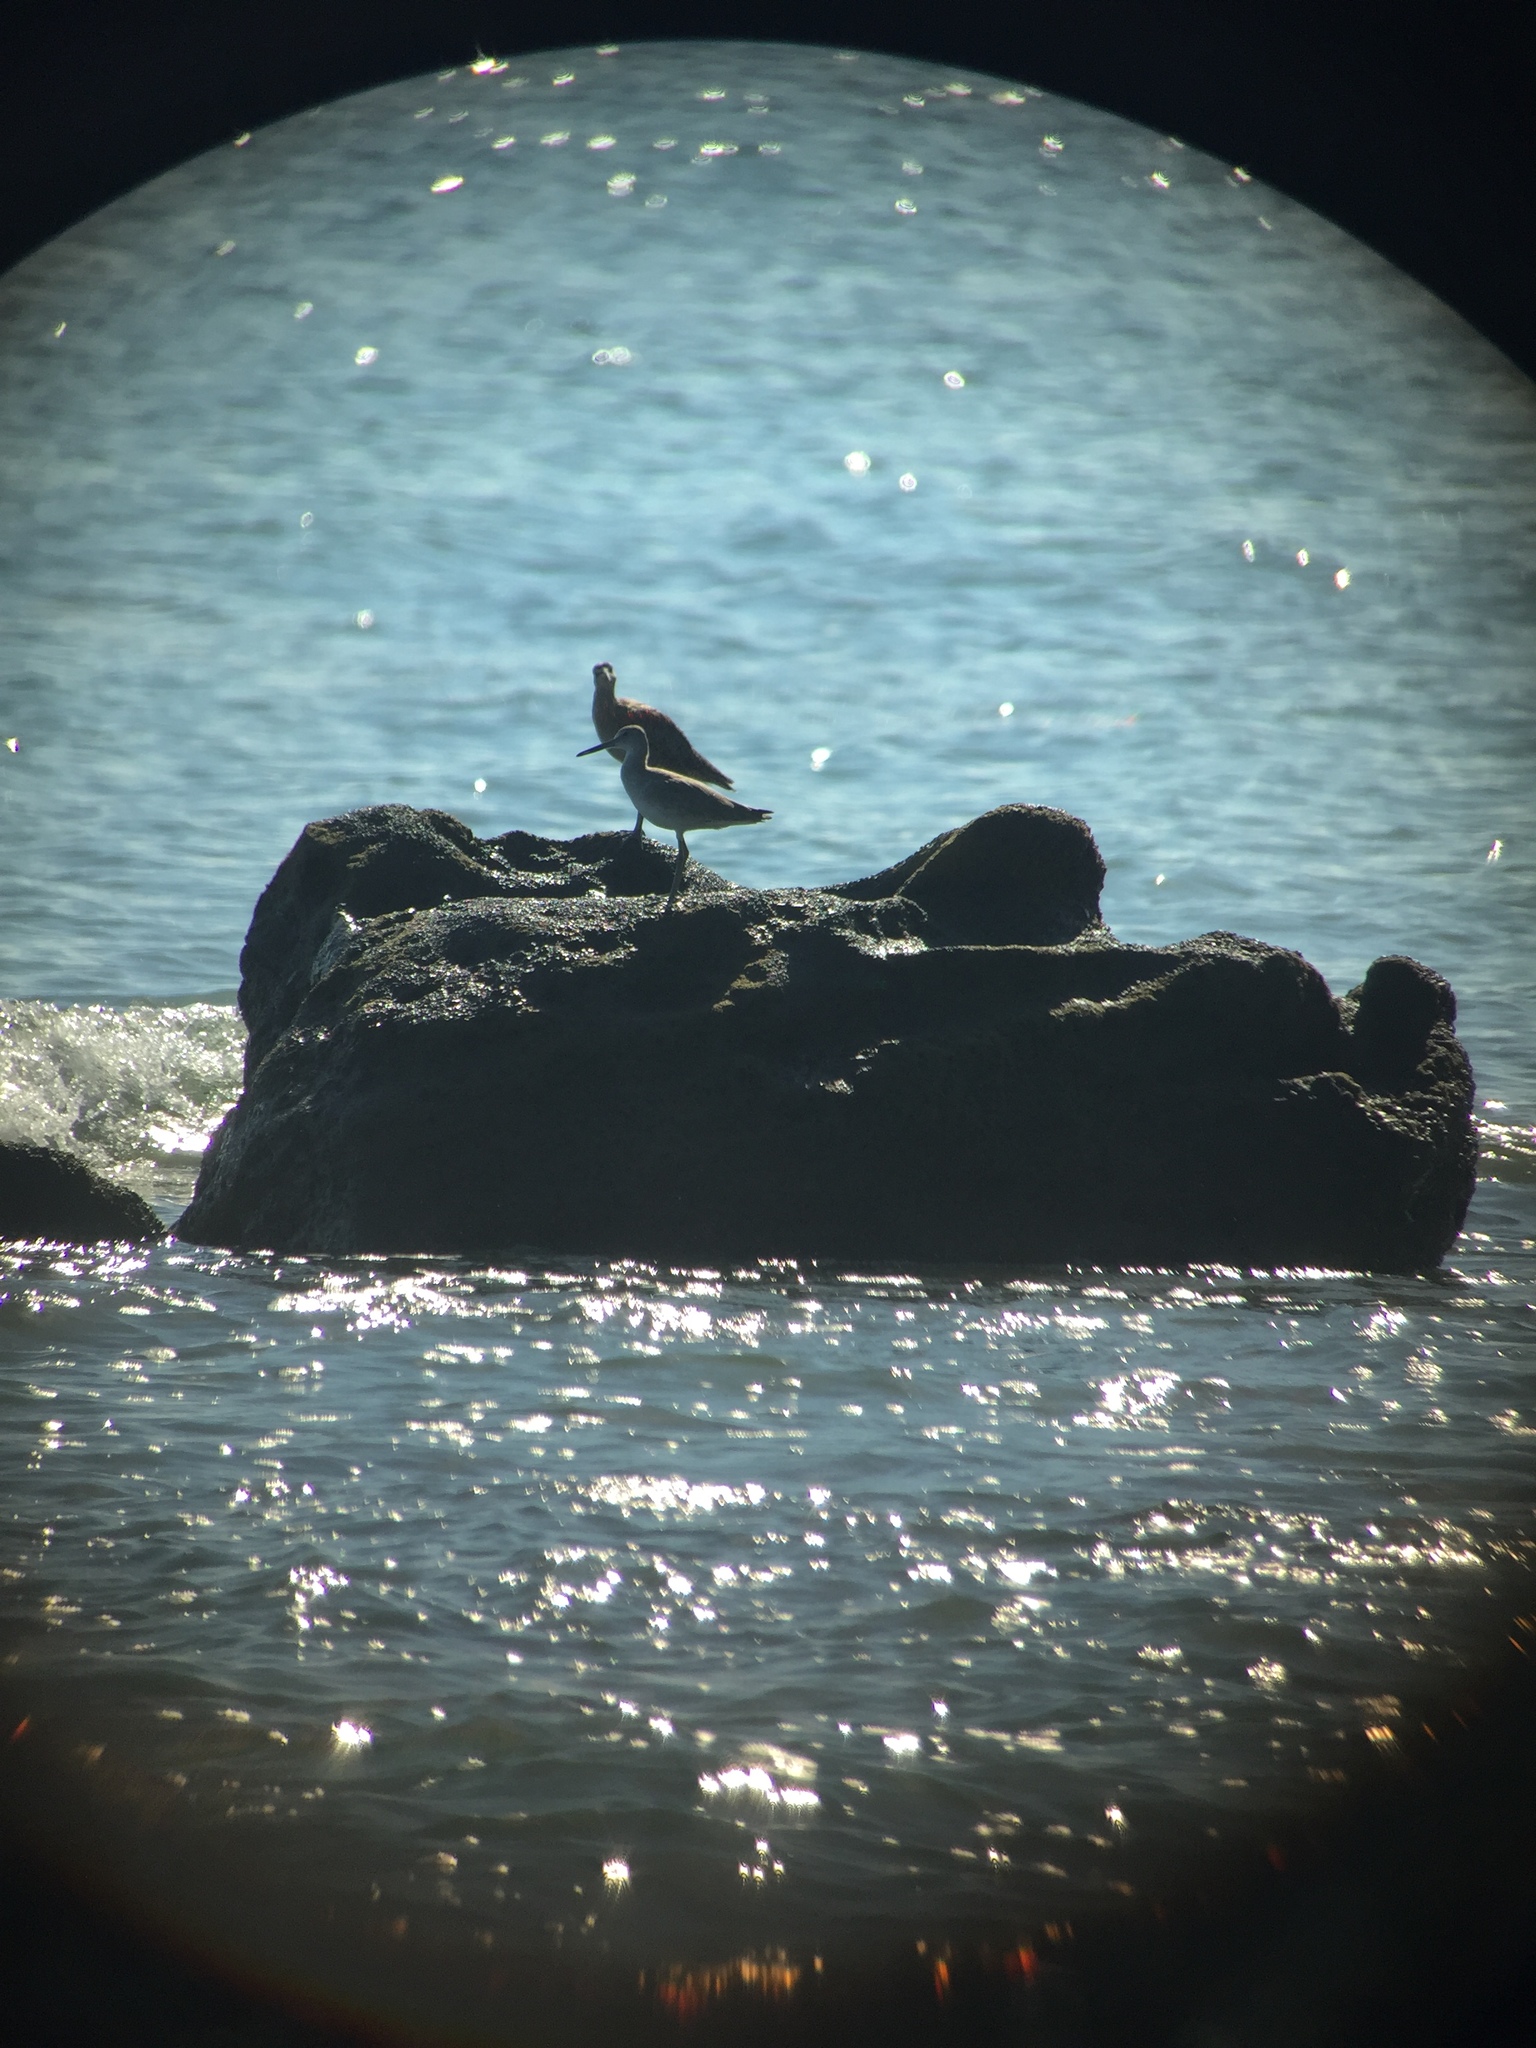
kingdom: Animalia
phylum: Chordata
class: Aves
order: Charadriiformes
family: Scolopacidae
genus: Tringa
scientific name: Tringa semipalmata
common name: Willet
